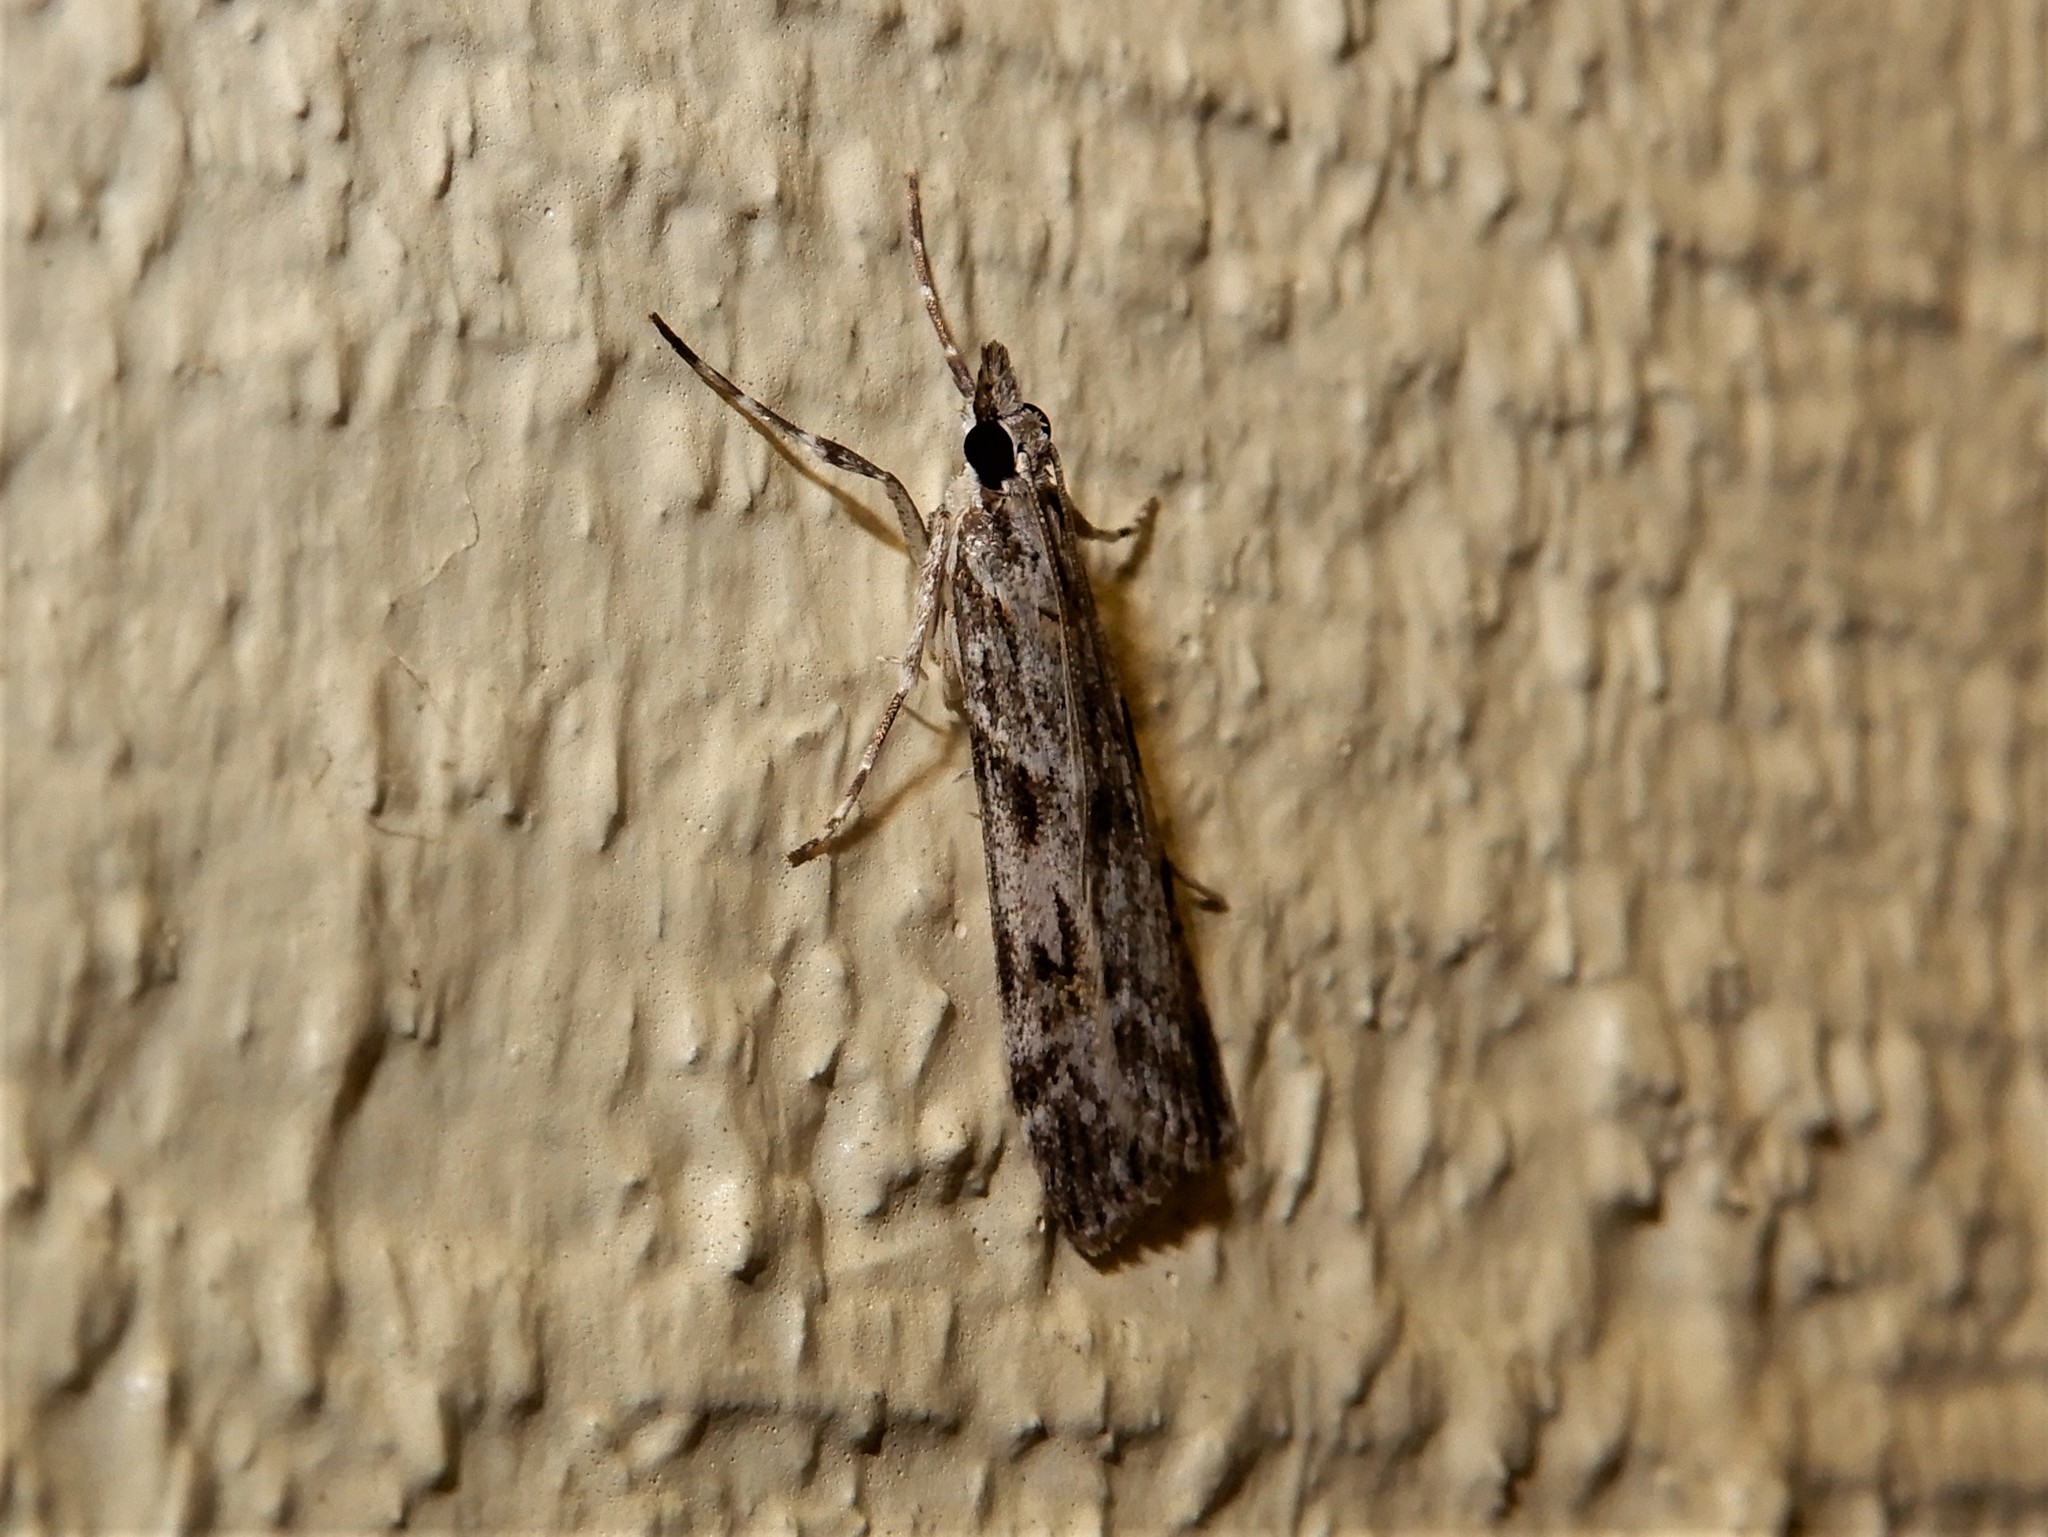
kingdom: Animalia
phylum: Arthropoda
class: Insecta
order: Lepidoptera
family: Crambidae
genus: Scoparia
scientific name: Scoparia halopis
